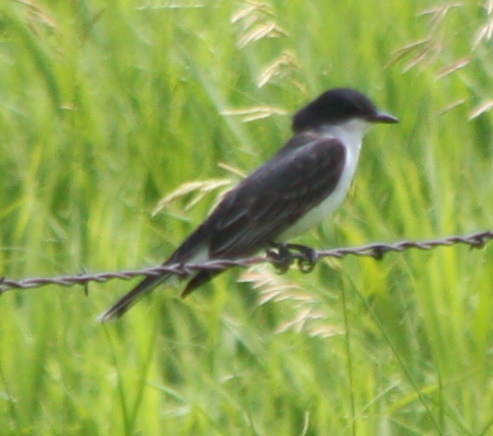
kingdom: Animalia
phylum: Chordata
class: Aves
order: Passeriformes
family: Tyrannidae
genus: Tyrannus
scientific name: Tyrannus tyrannus
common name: Eastern kingbird
